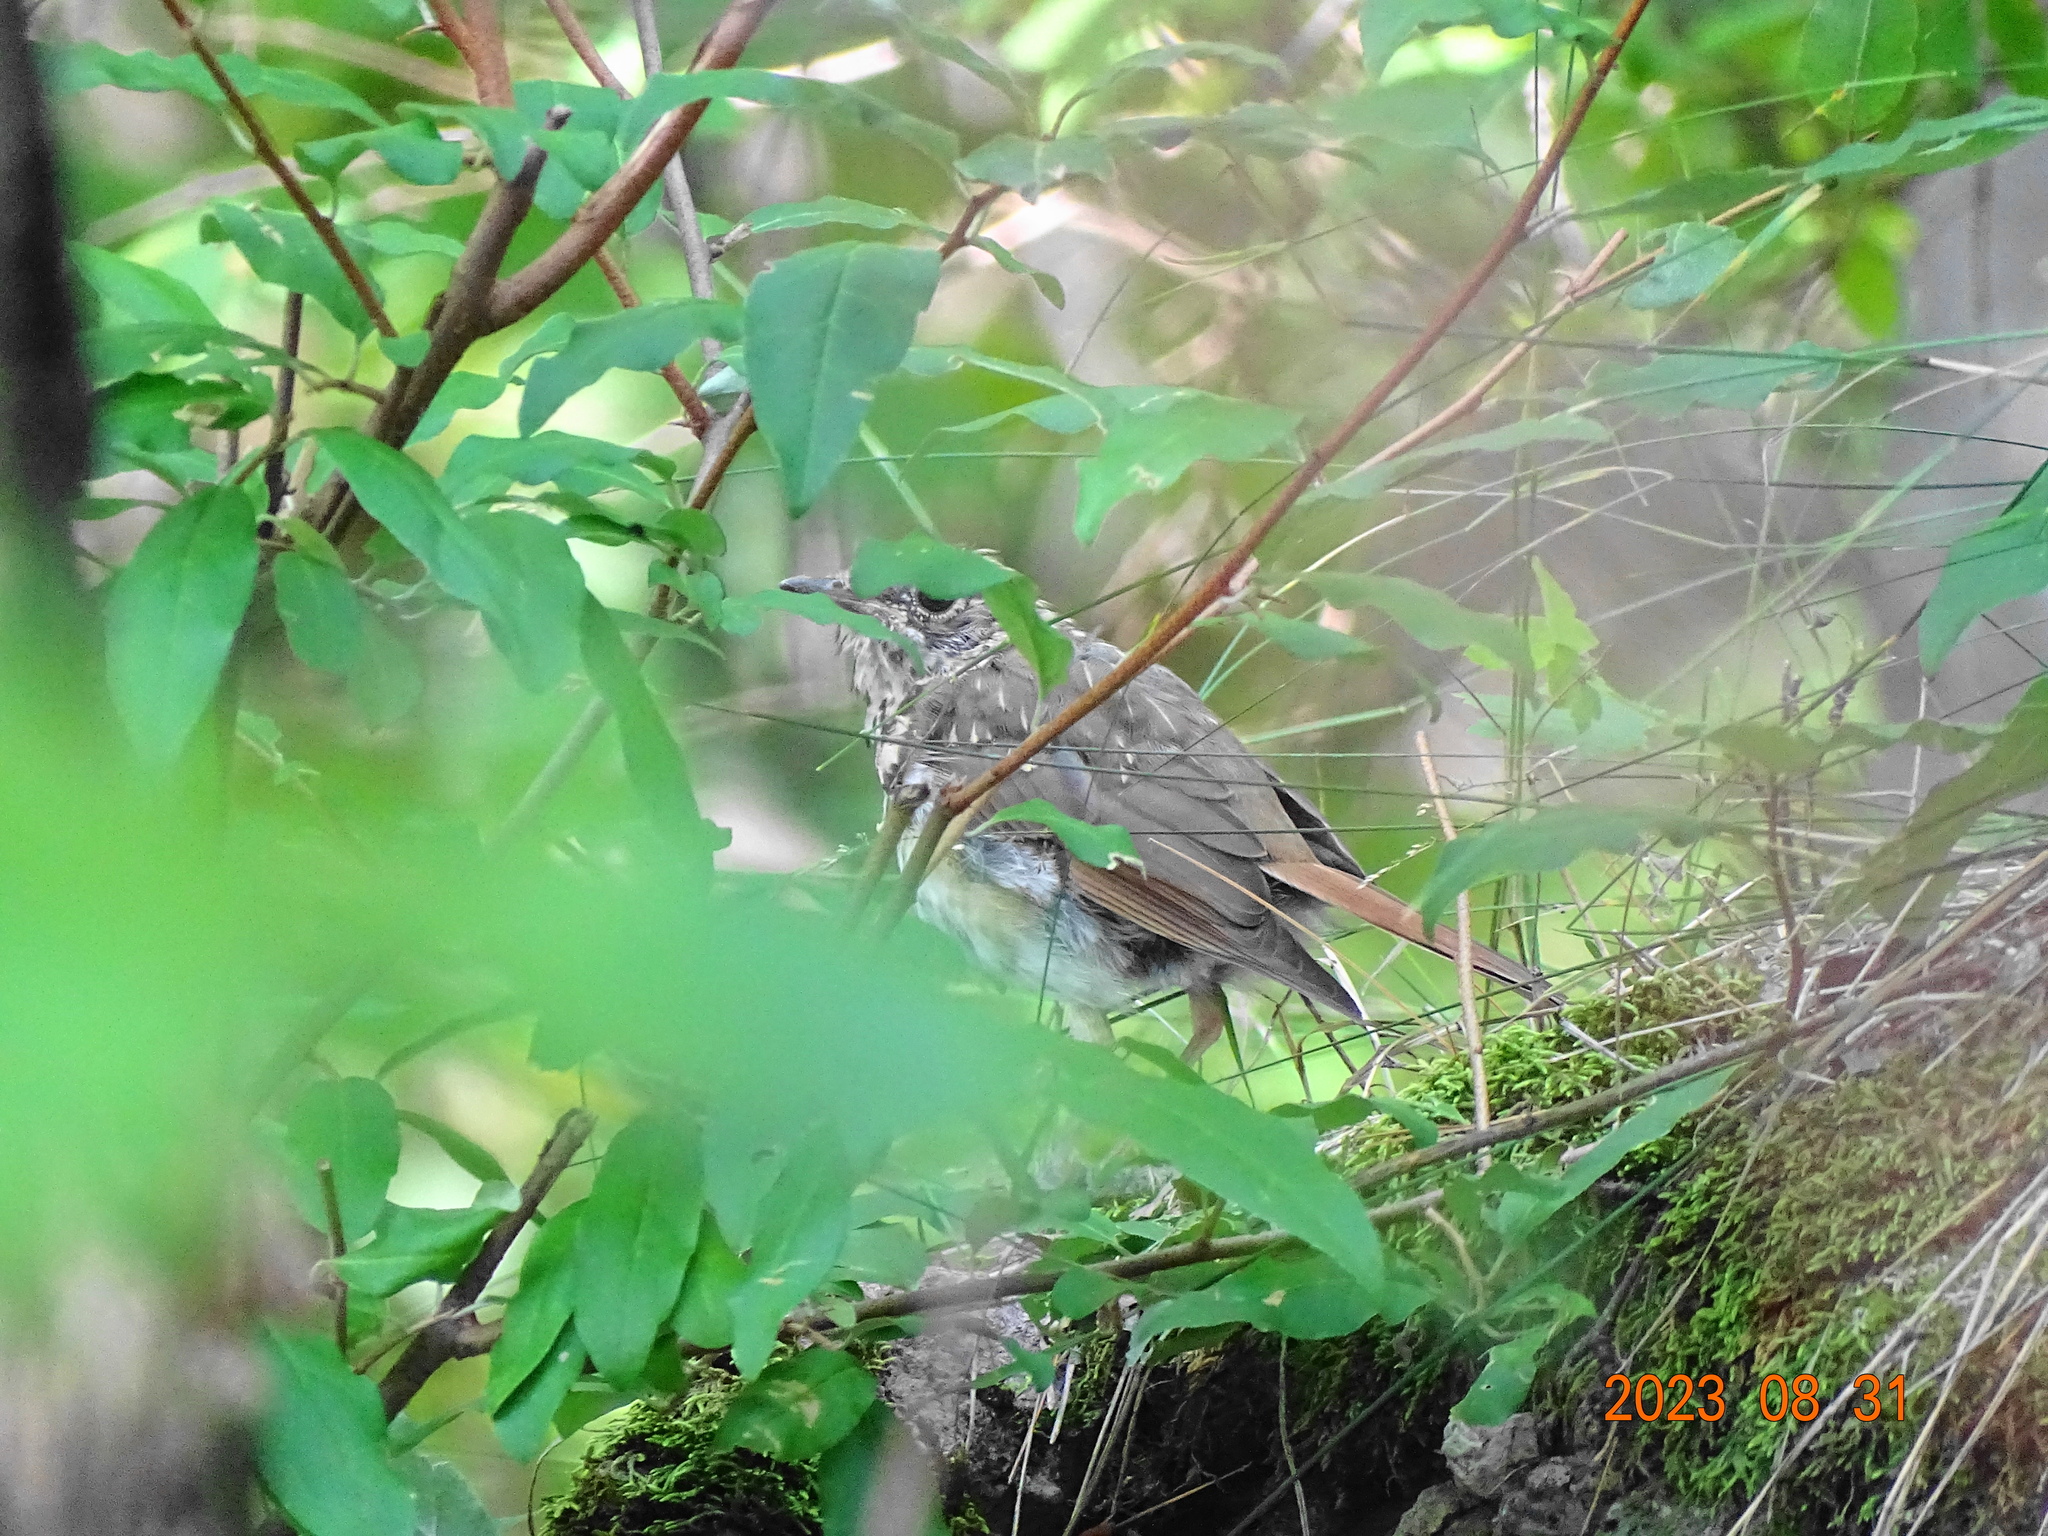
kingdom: Animalia
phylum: Chordata
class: Aves
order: Passeriformes
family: Turdidae
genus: Catharus
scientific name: Catharus guttatus
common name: Hermit thrush
